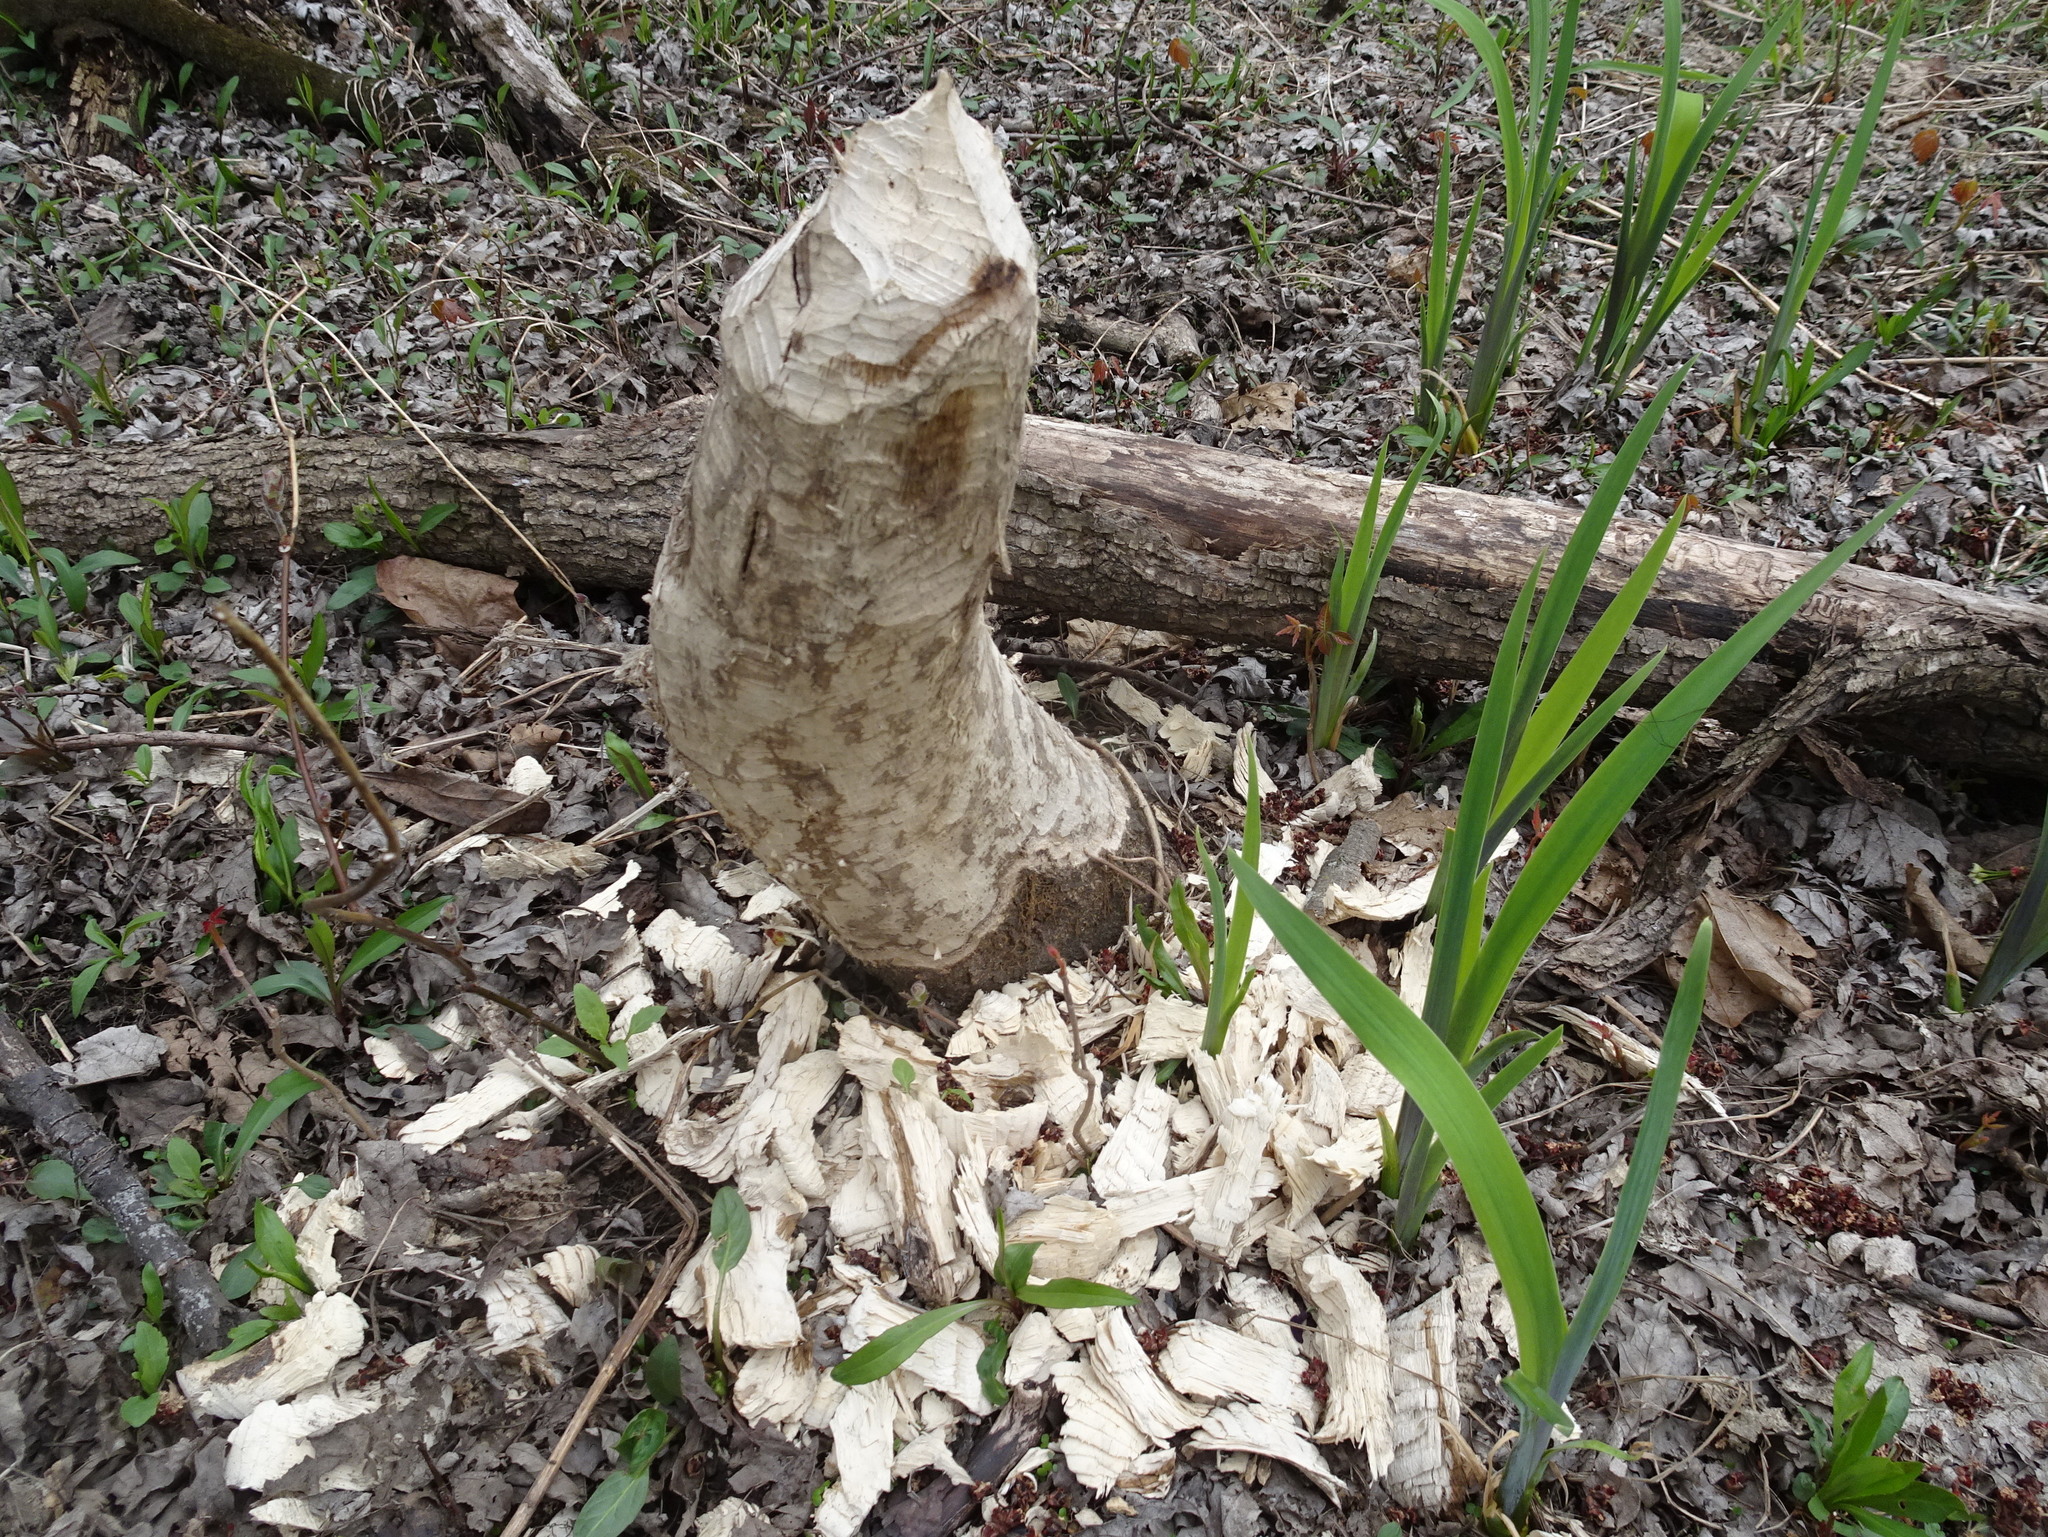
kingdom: Animalia
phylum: Chordata
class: Mammalia
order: Rodentia
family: Castoridae
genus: Castor
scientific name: Castor canadensis
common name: American beaver
